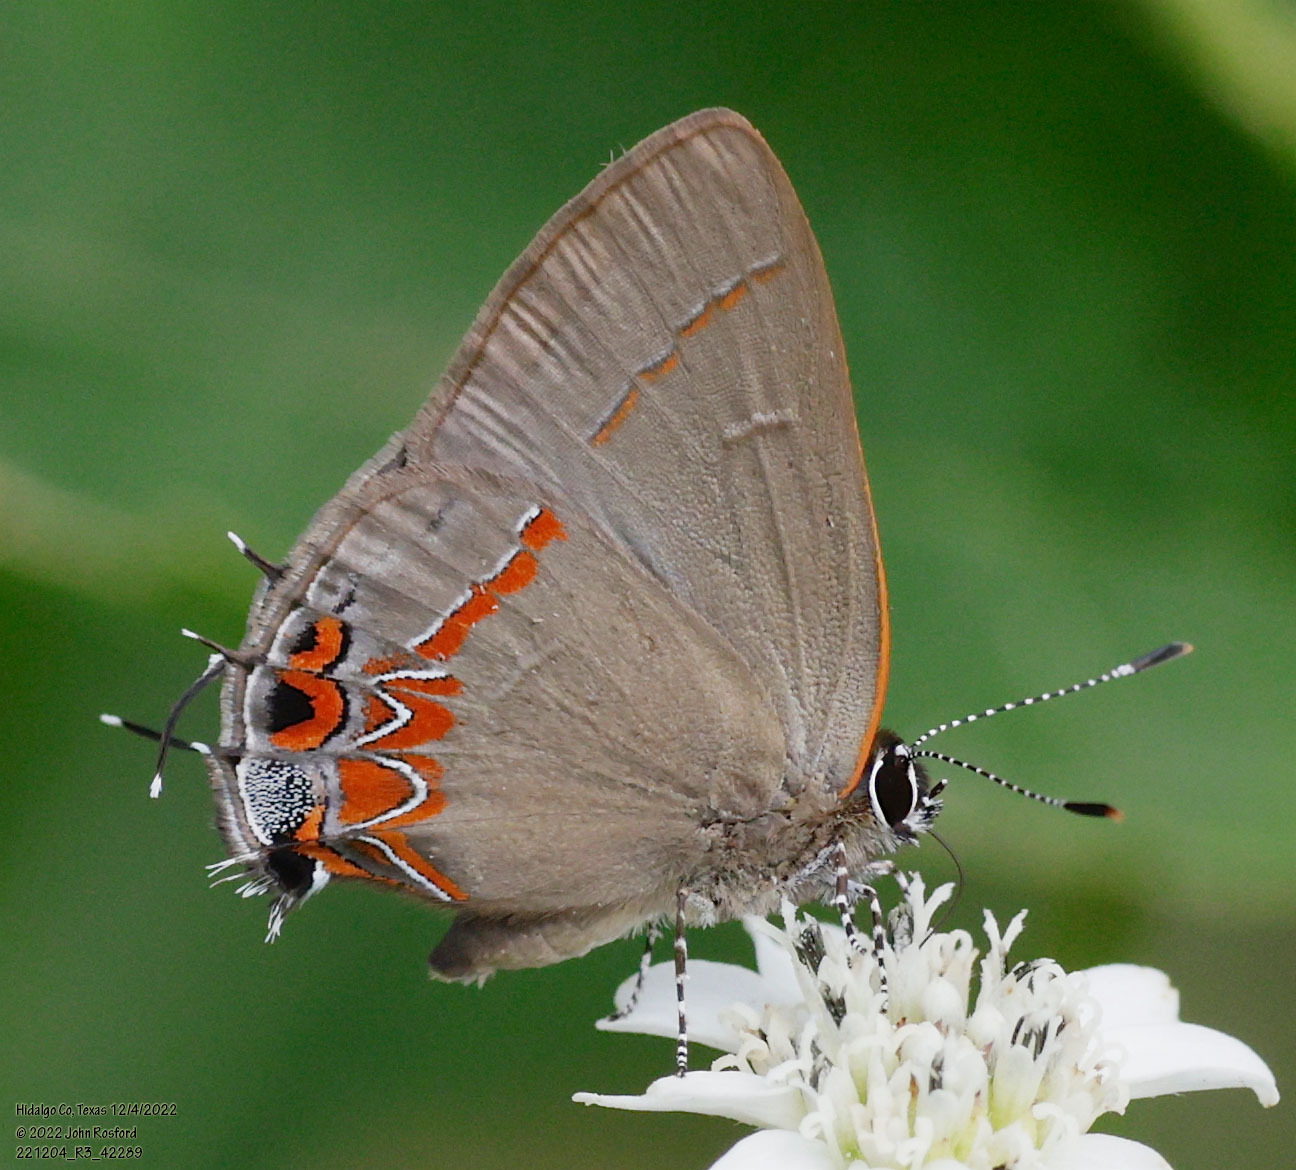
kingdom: Animalia
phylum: Arthropoda
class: Insecta
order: Lepidoptera
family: Lycaenidae
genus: Calycopis
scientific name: Calycopis isobeon
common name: Dusky-blue groundstreak
